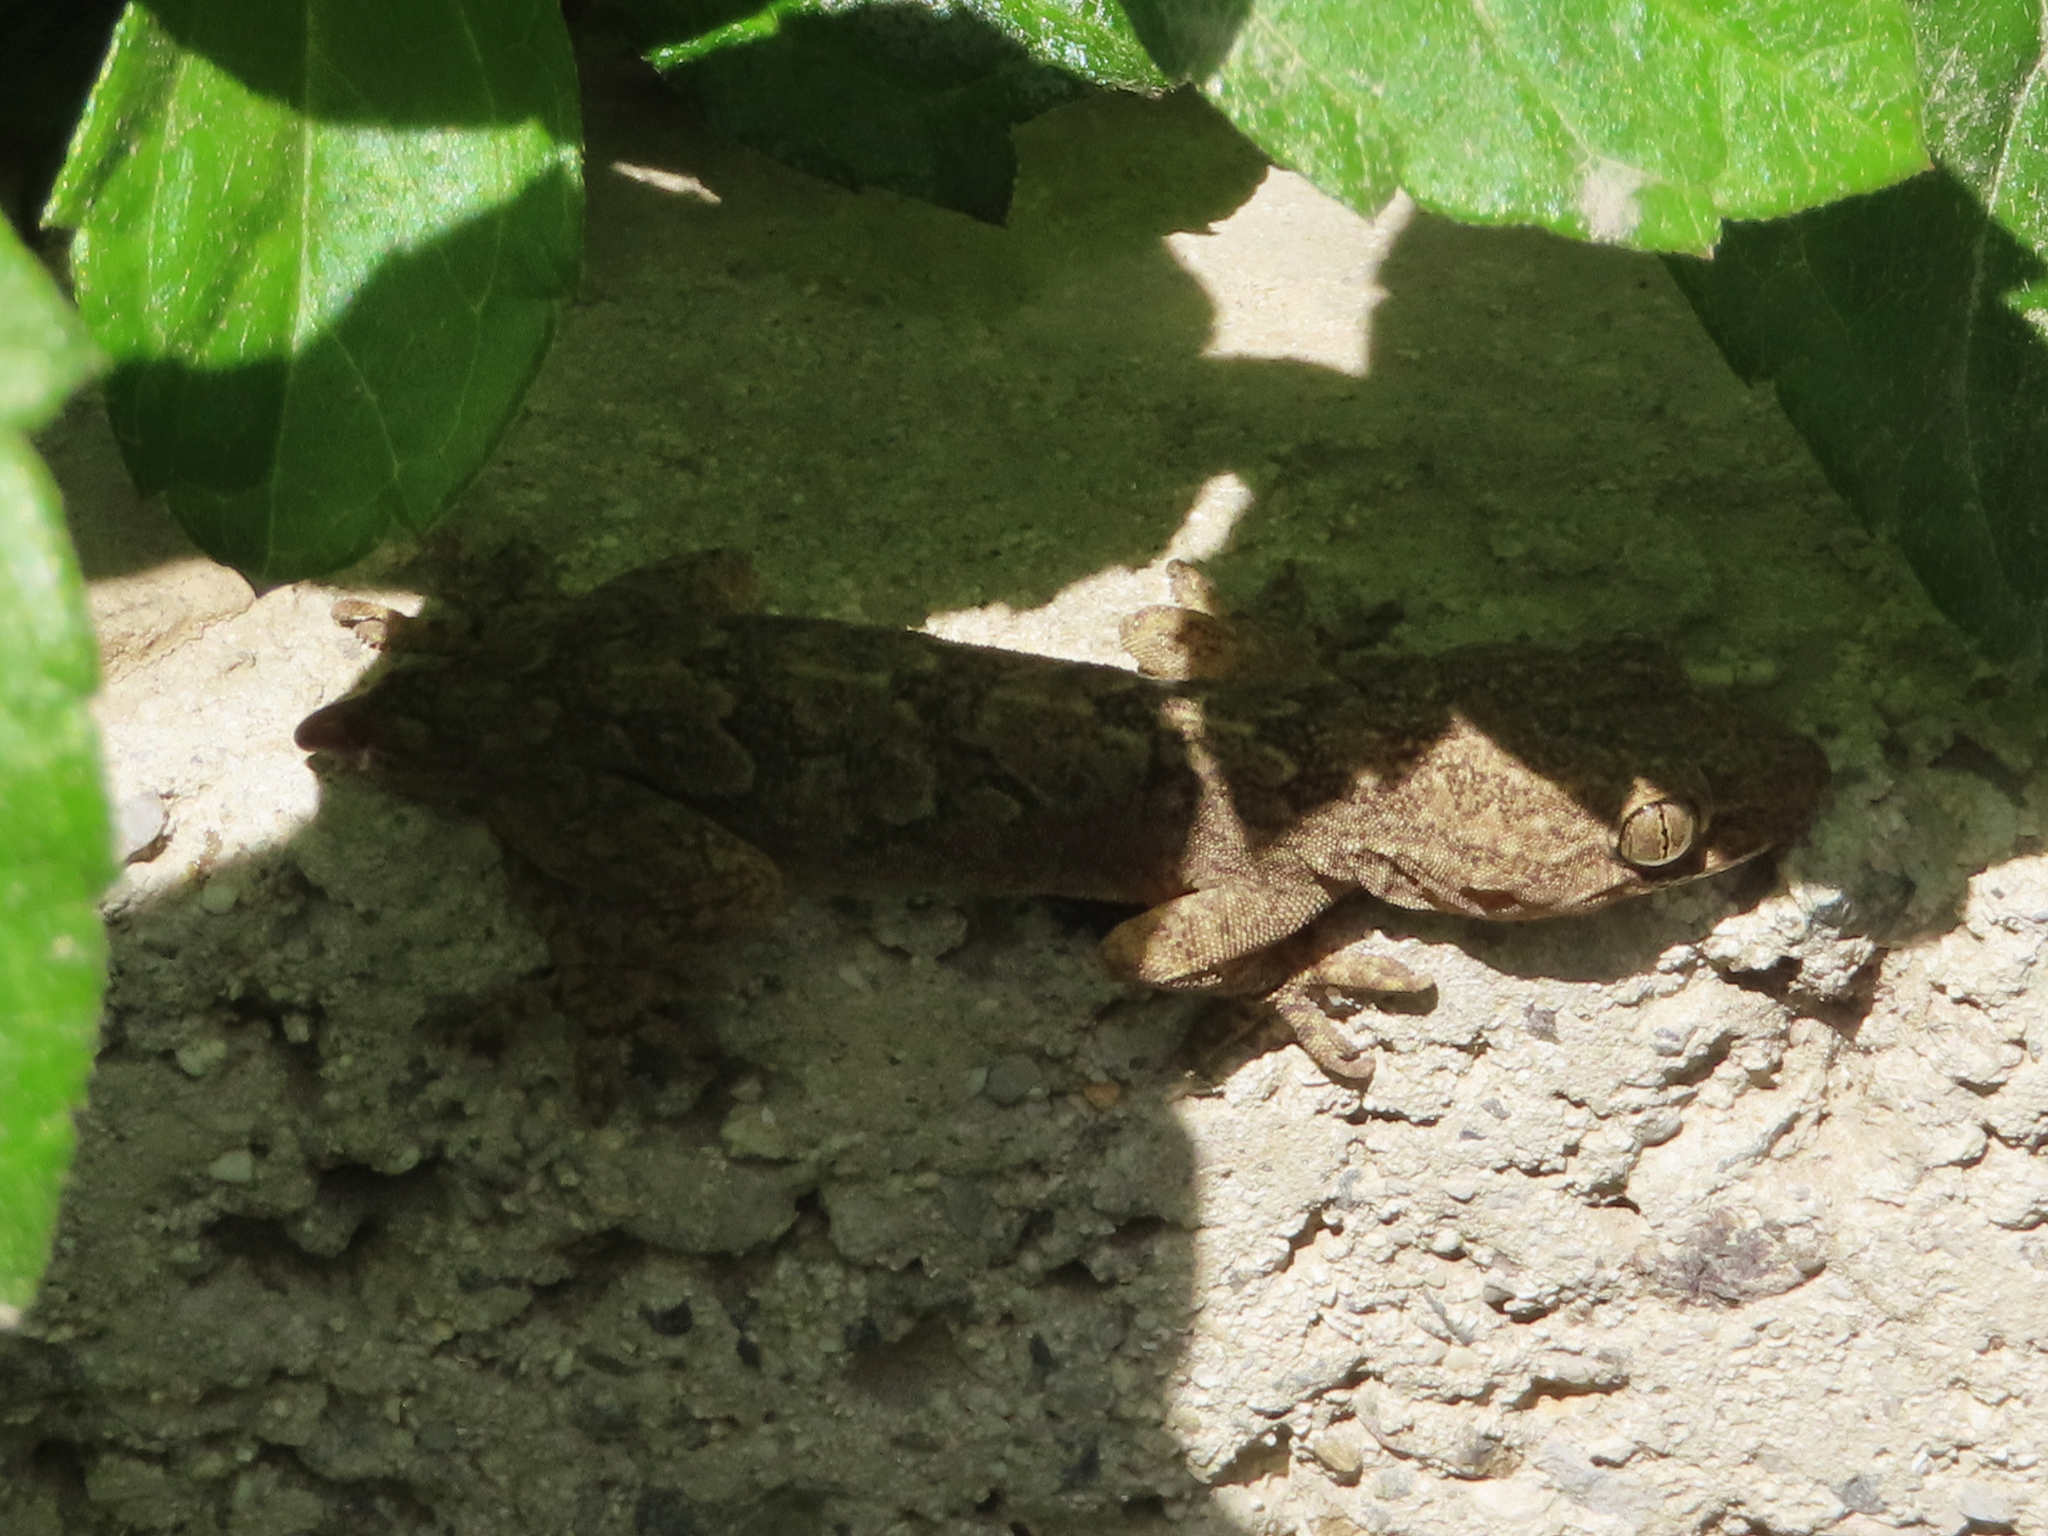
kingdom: Animalia
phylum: Chordata
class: Squamata
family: Gekkonidae
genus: Hemidactylus
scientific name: Hemidactylus flaviviridis
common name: Northern house gecko
